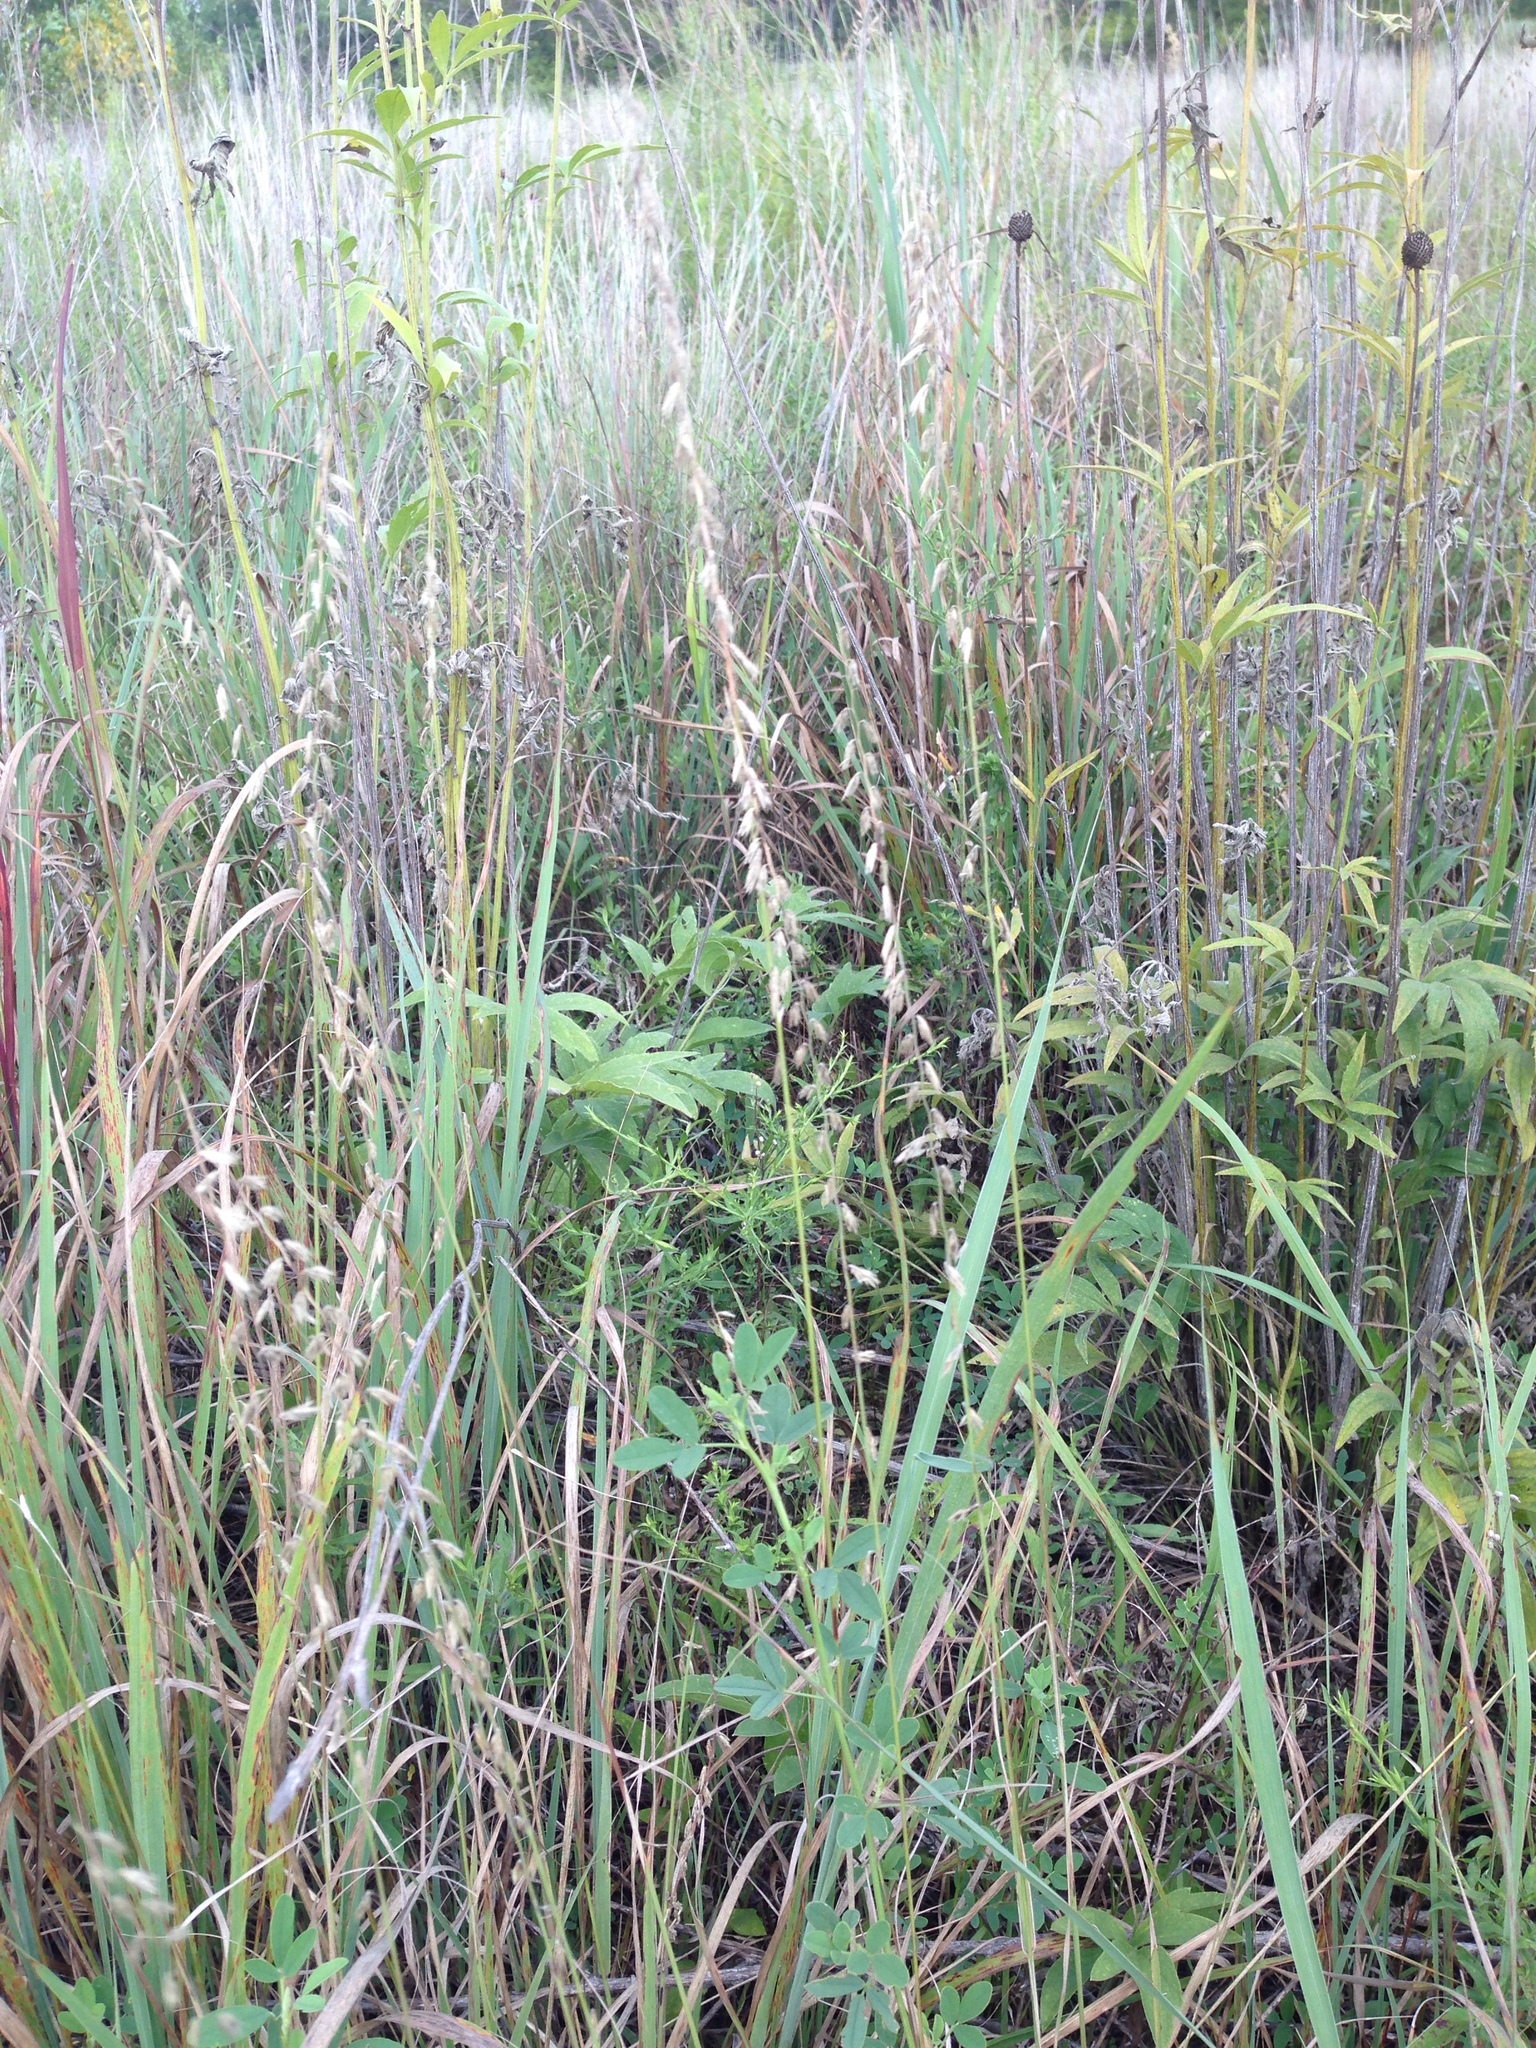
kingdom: Plantae
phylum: Tracheophyta
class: Liliopsida
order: Poales
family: Poaceae
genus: Bouteloua
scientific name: Bouteloua curtipendula
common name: Side-oats grama
